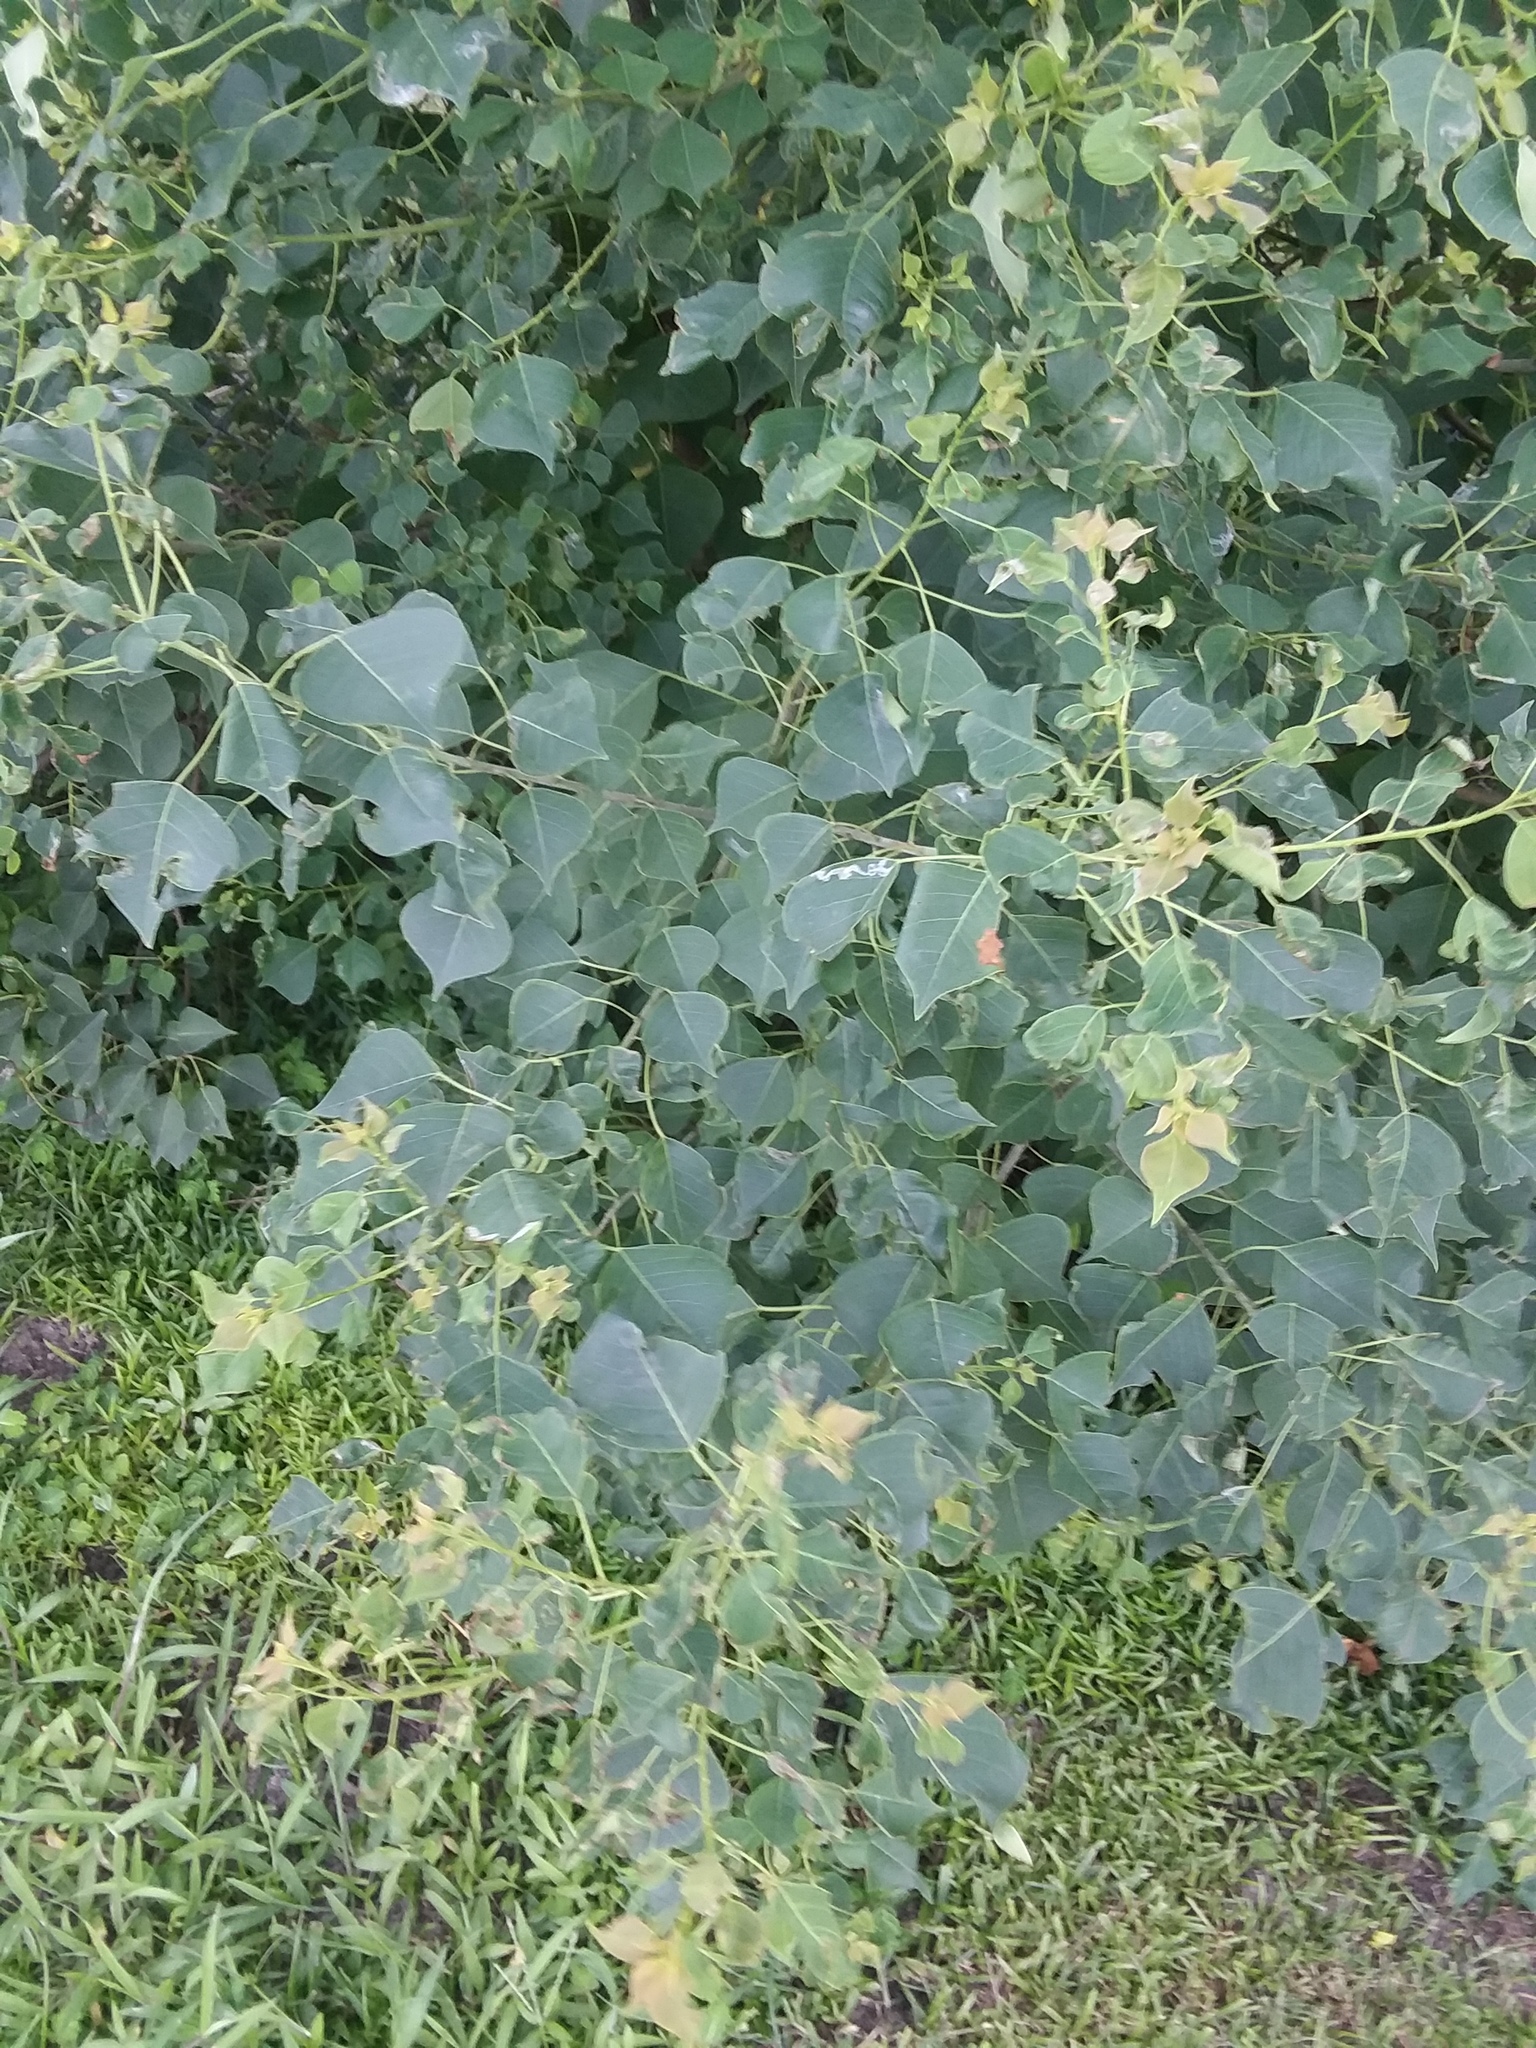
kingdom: Plantae
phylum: Tracheophyta
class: Magnoliopsida
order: Malpighiales
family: Euphorbiaceae
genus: Triadica
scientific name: Triadica sebifera
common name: Chinese tallow
